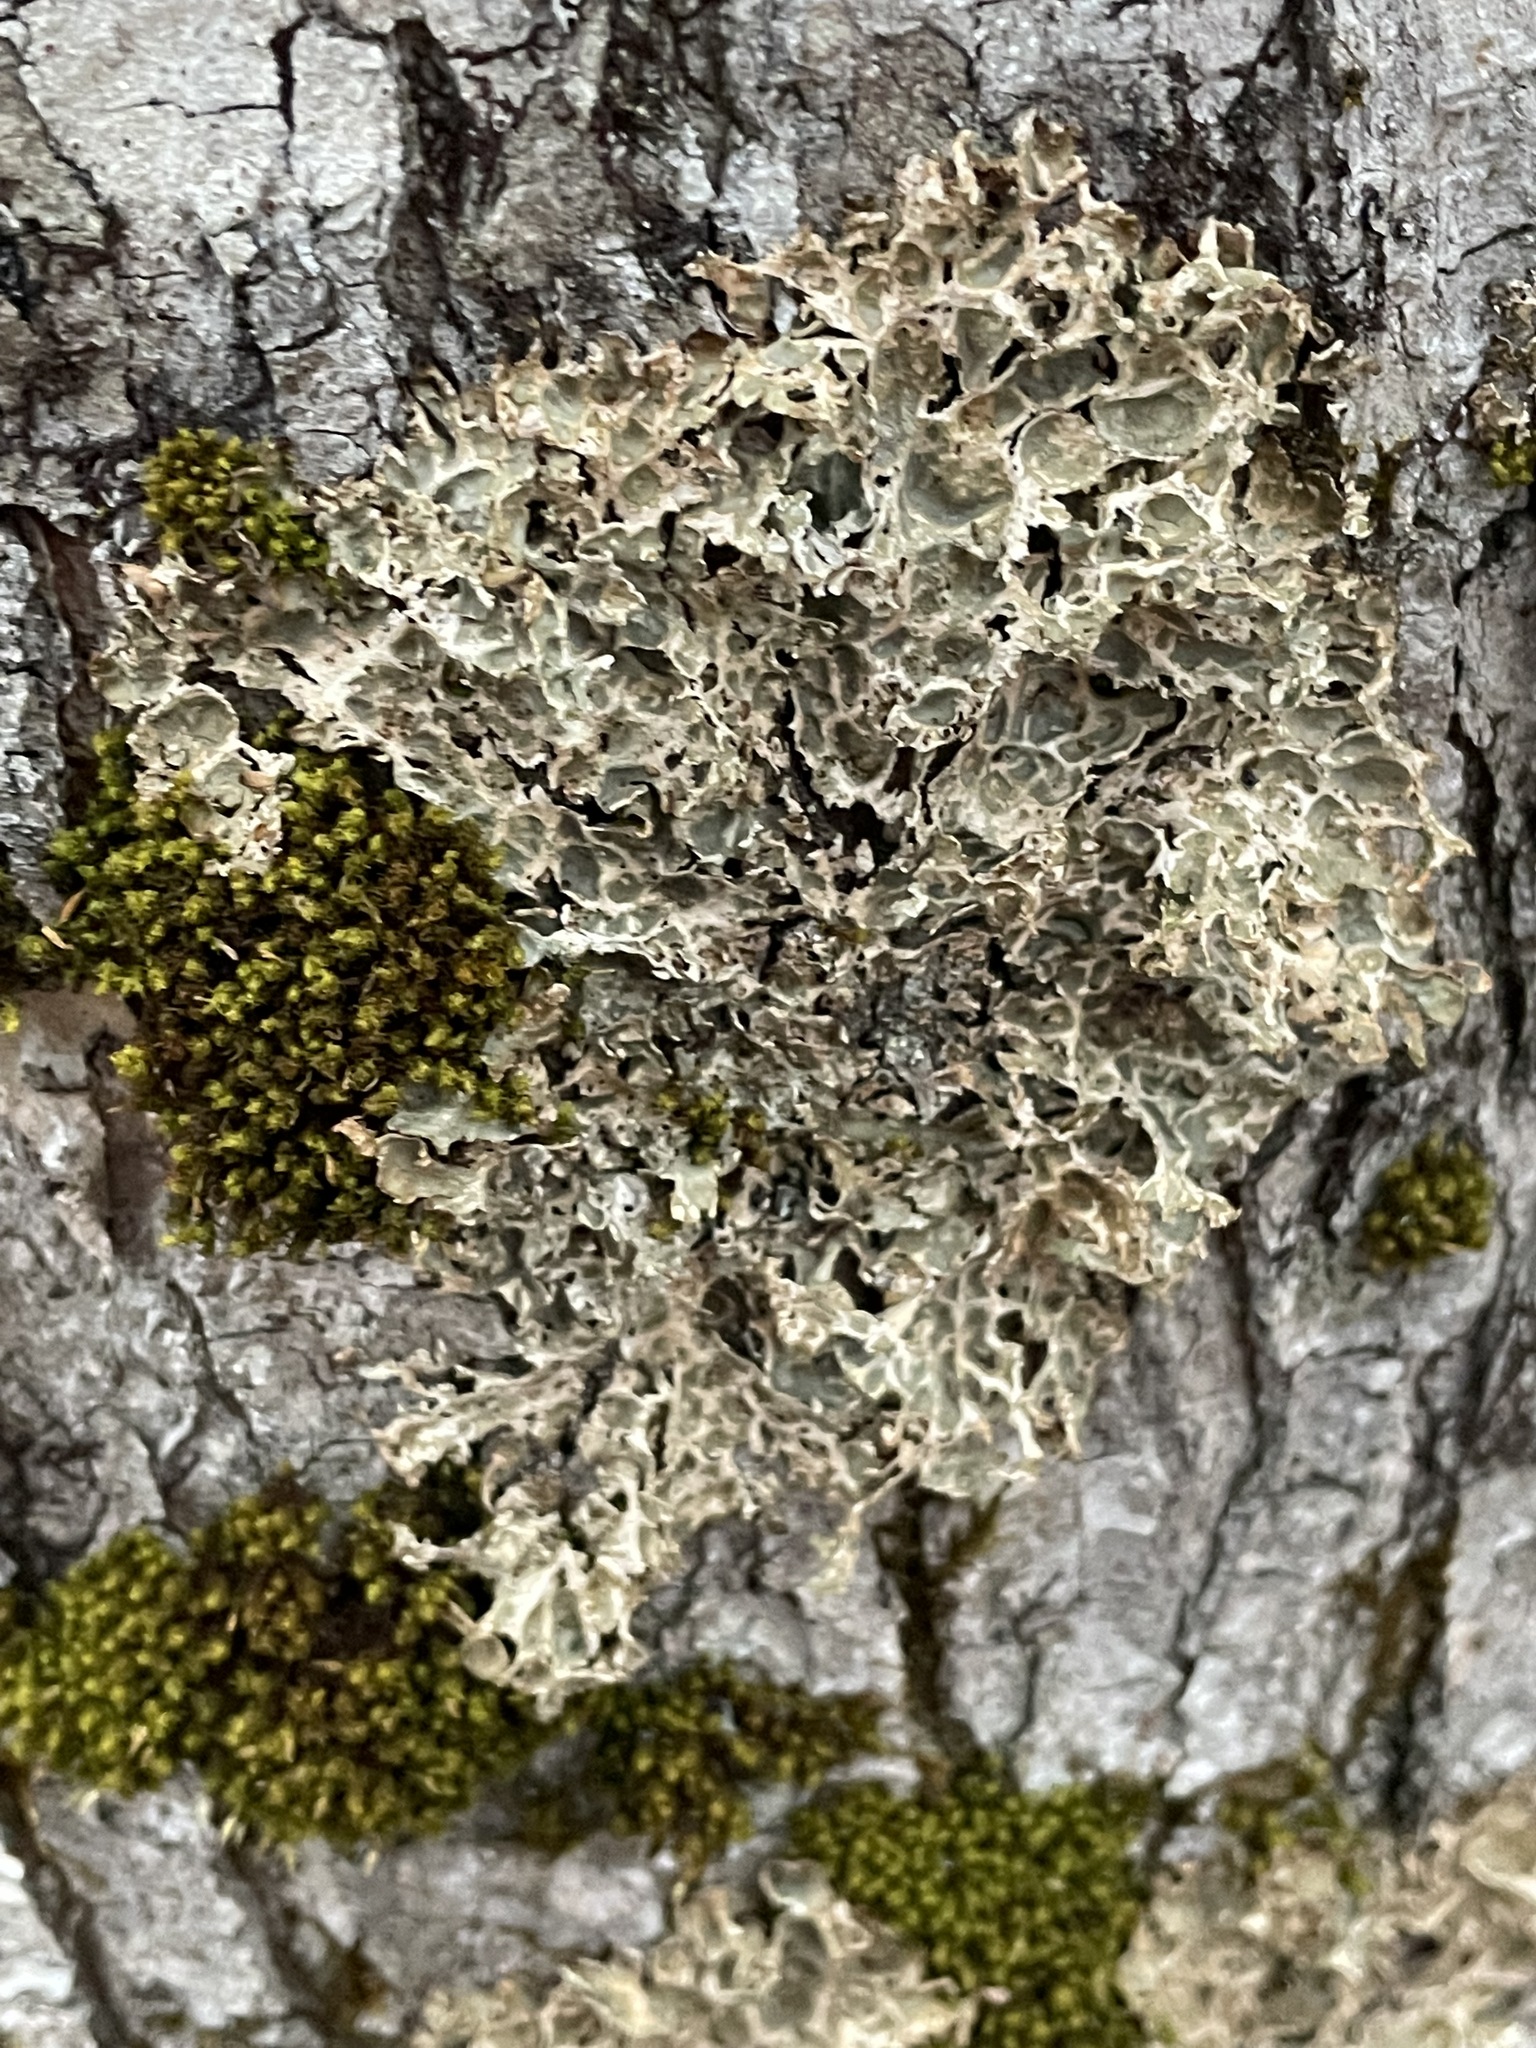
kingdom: Fungi
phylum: Ascomycota
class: Lecanoromycetes
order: Peltigerales
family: Lobariaceae
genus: Lobaria
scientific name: Lobaria pulmonaria
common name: Lungwort
